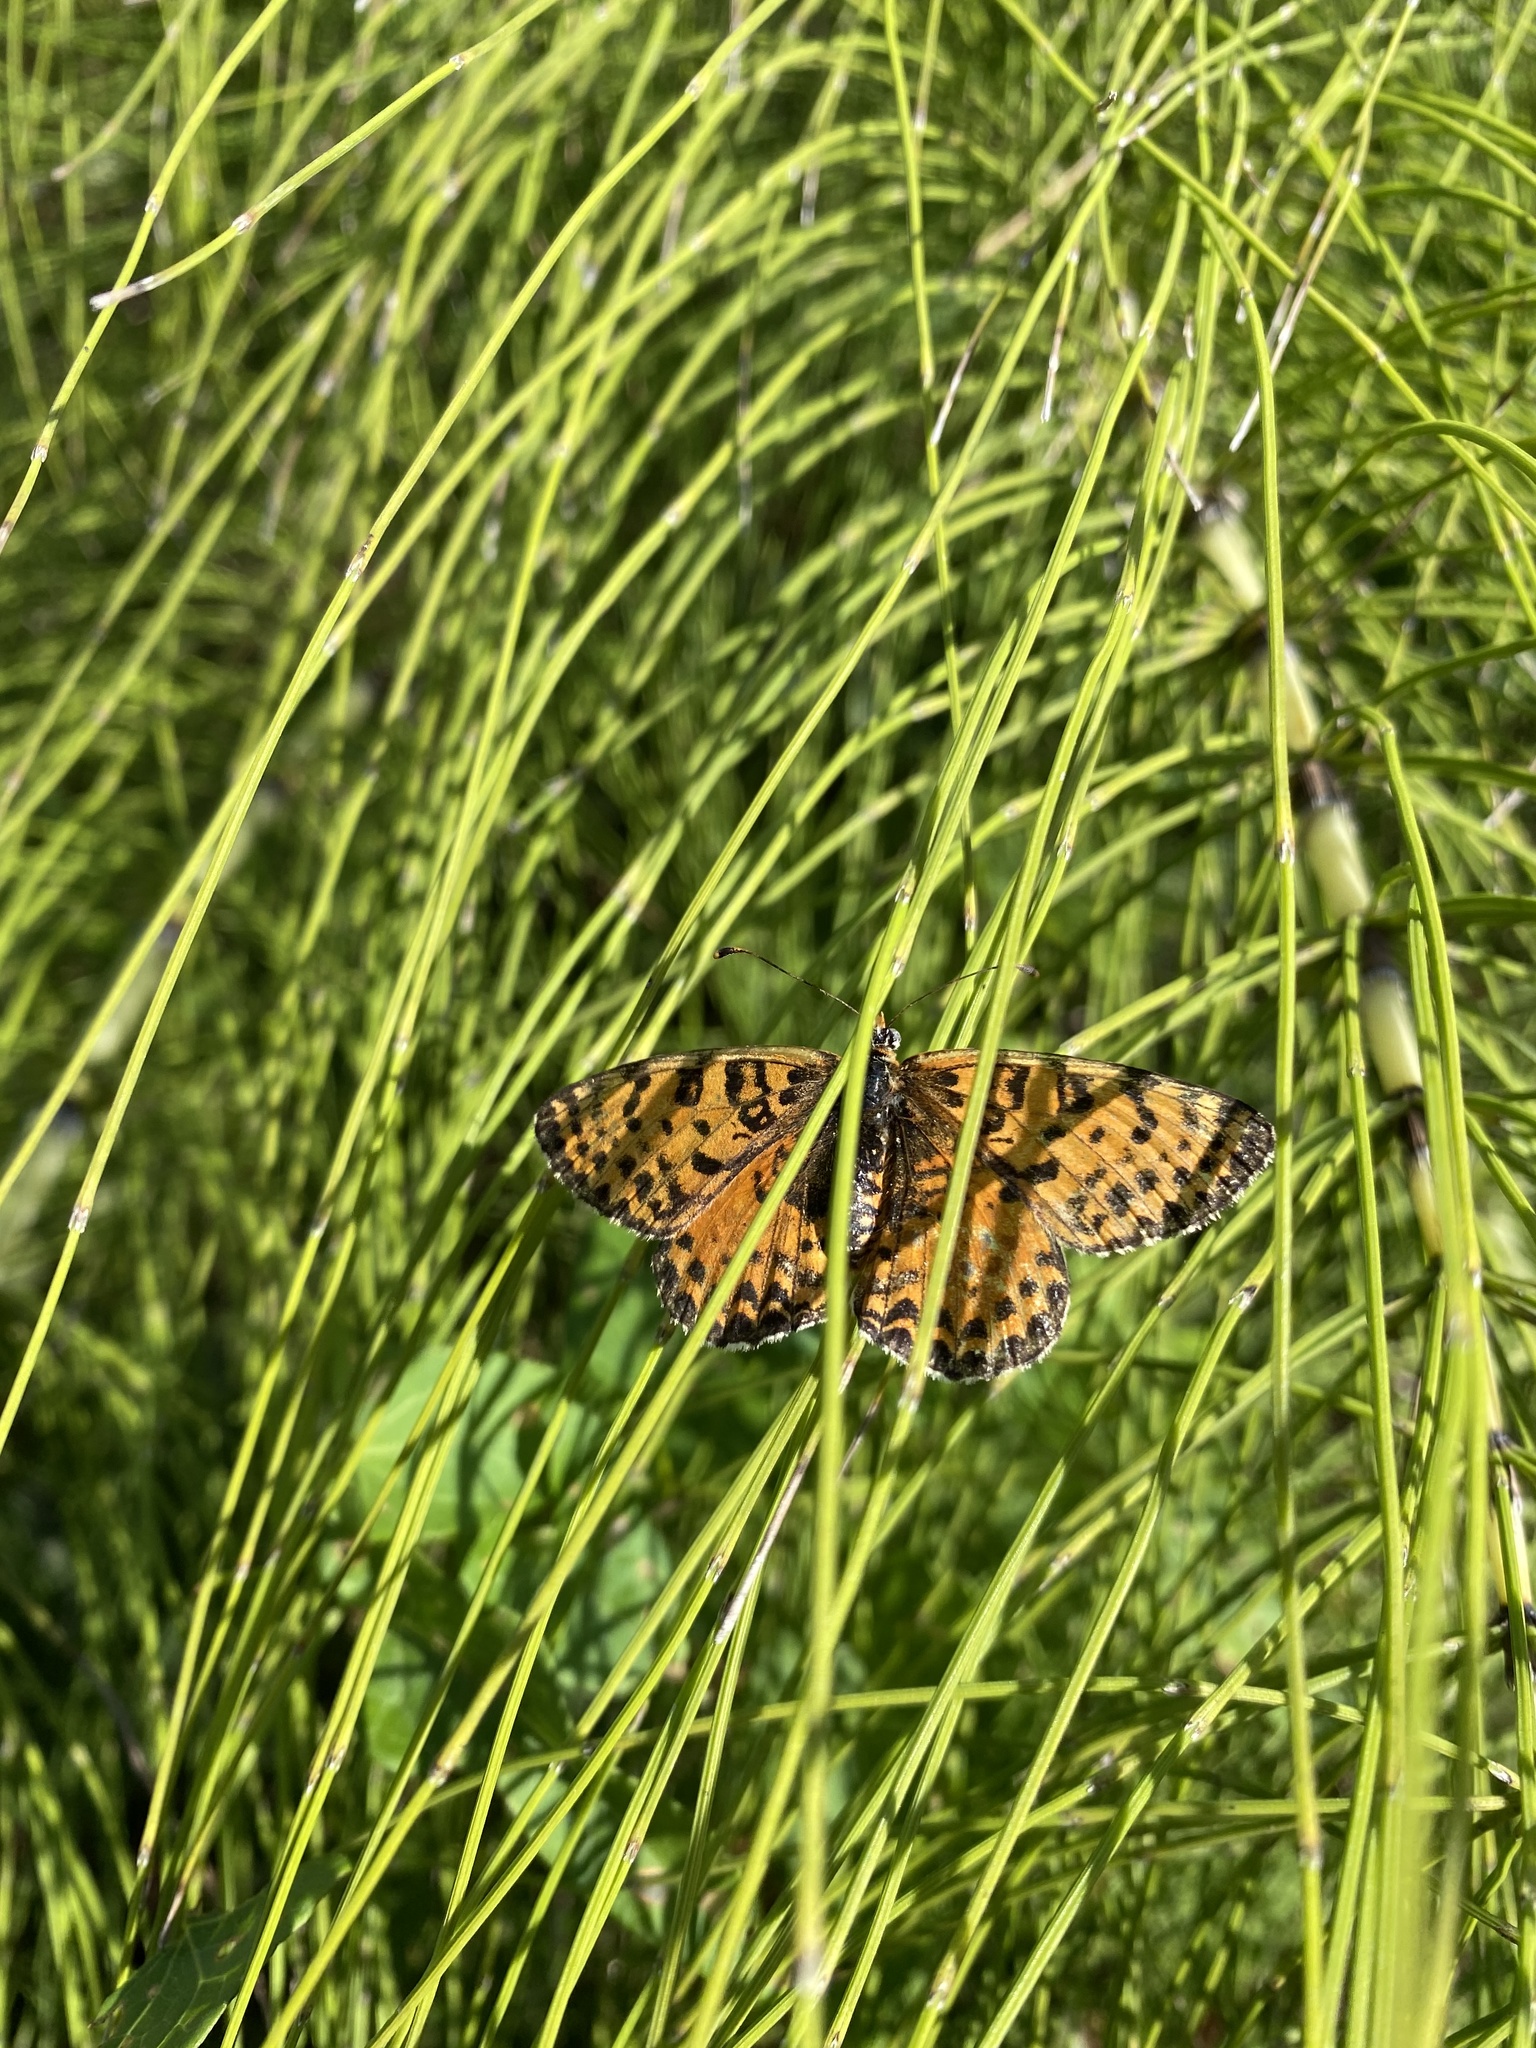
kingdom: Animalia
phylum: Arthropoda
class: Insecta
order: Lepidoptera
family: Nymphalidae
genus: Melitaea
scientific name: Melitaea didyma
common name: Spotted fritillary
